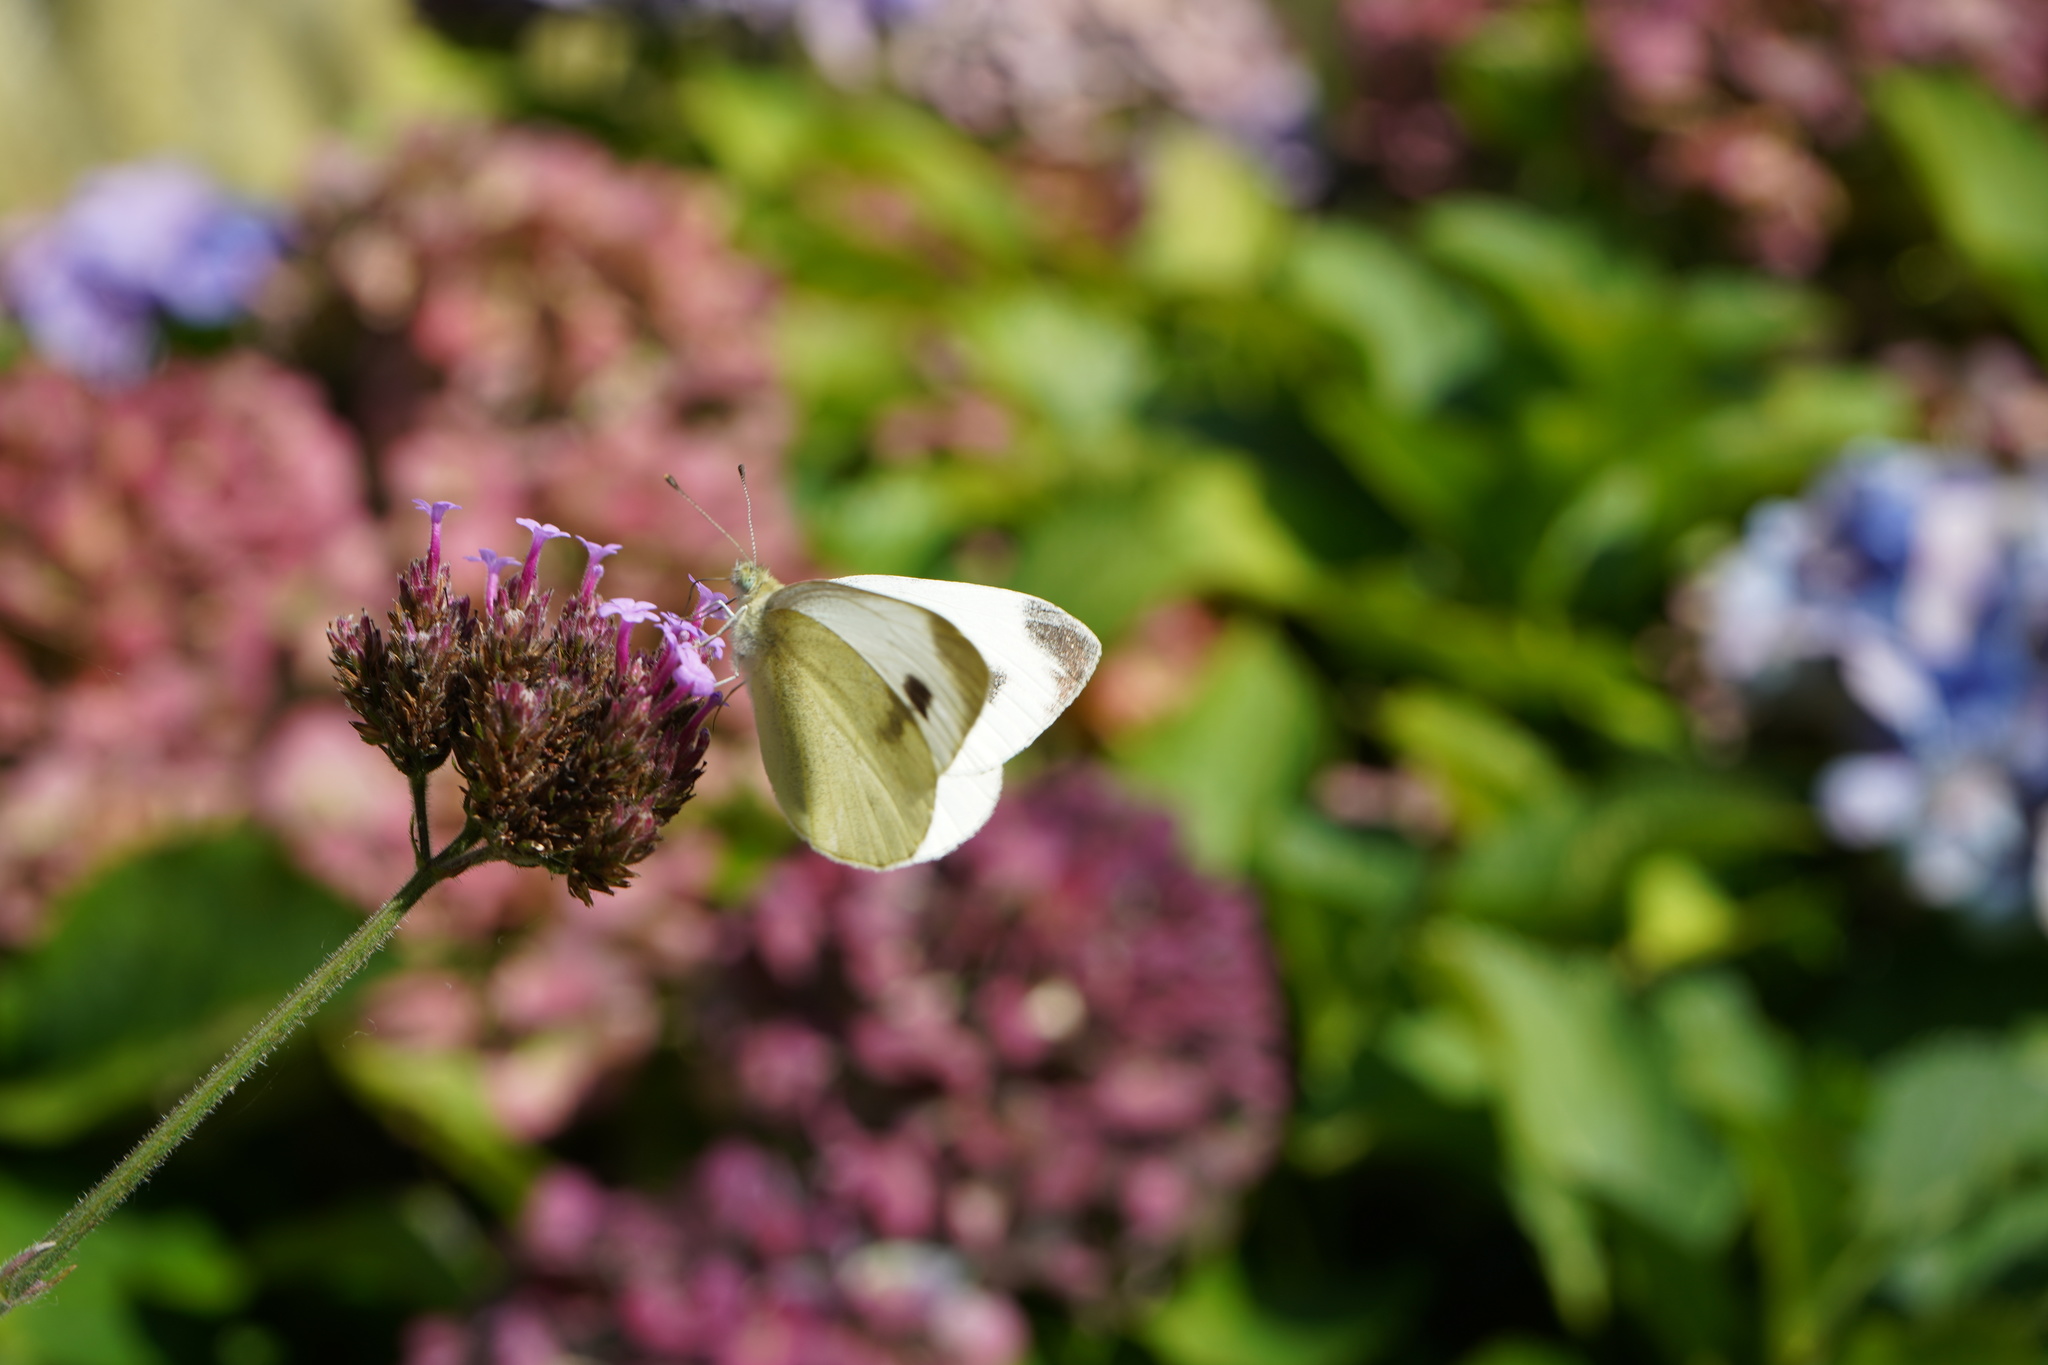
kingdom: Animalia
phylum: Arthropoda
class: Insecta
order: Lepidoptera
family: Pieridae
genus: Pieris
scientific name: Pieris mannii
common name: Southern small white
